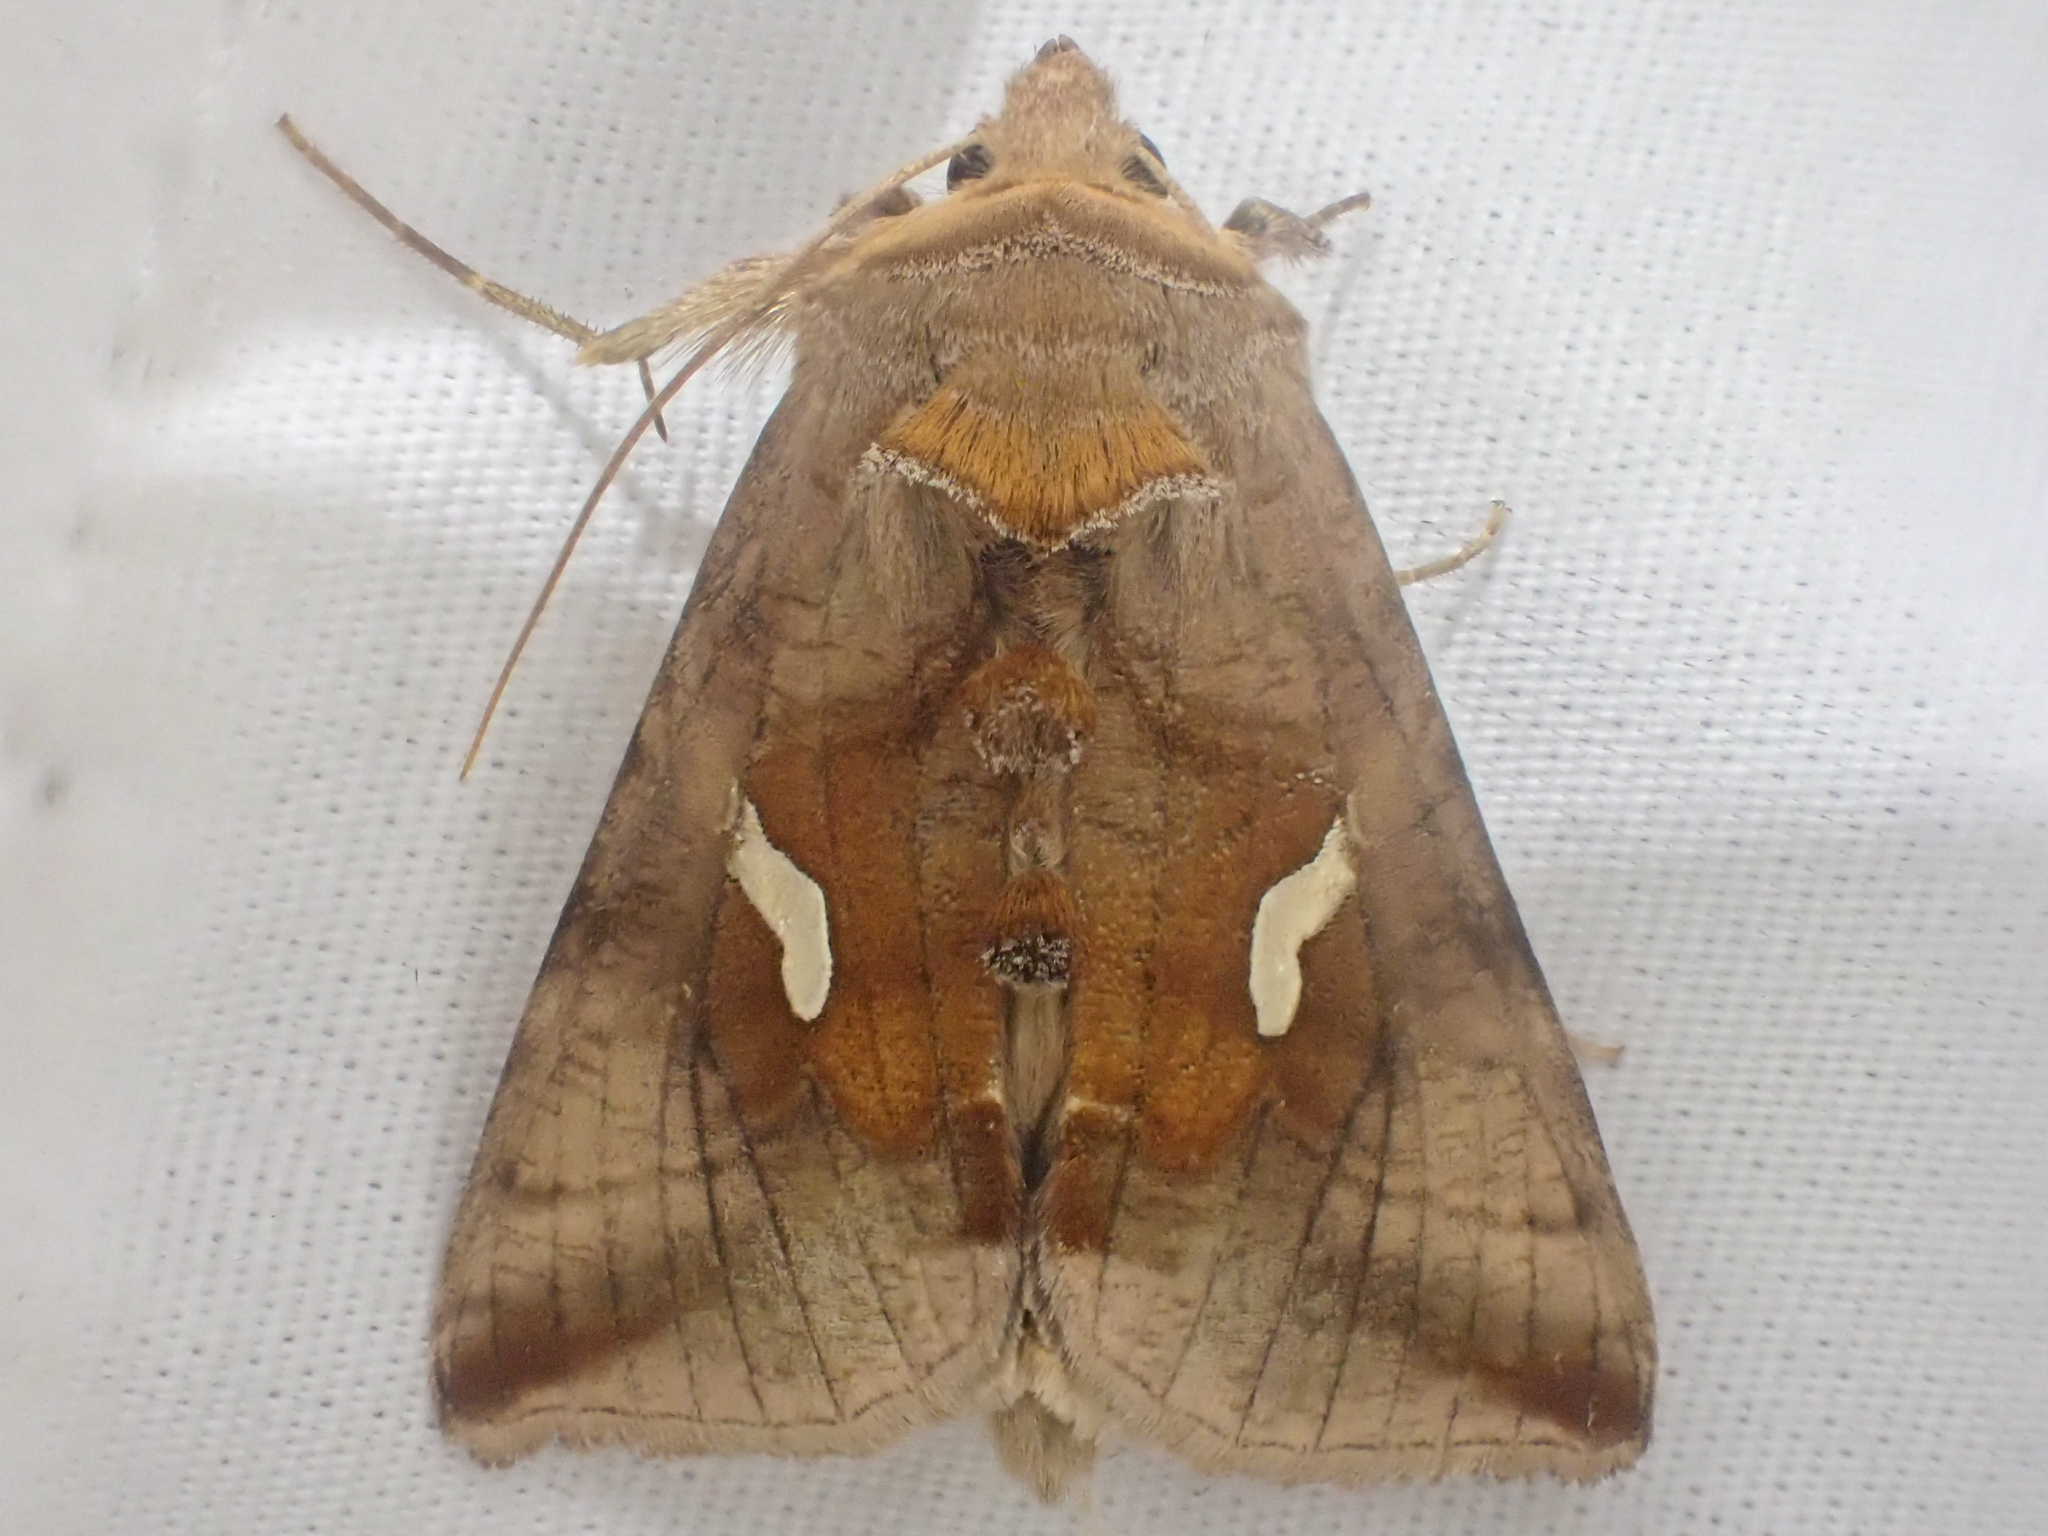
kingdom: Animalia
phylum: Arthropoda
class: Insecta
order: Lepidoptera
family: Noctuidae
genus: Autographa
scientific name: Autographa metallica
